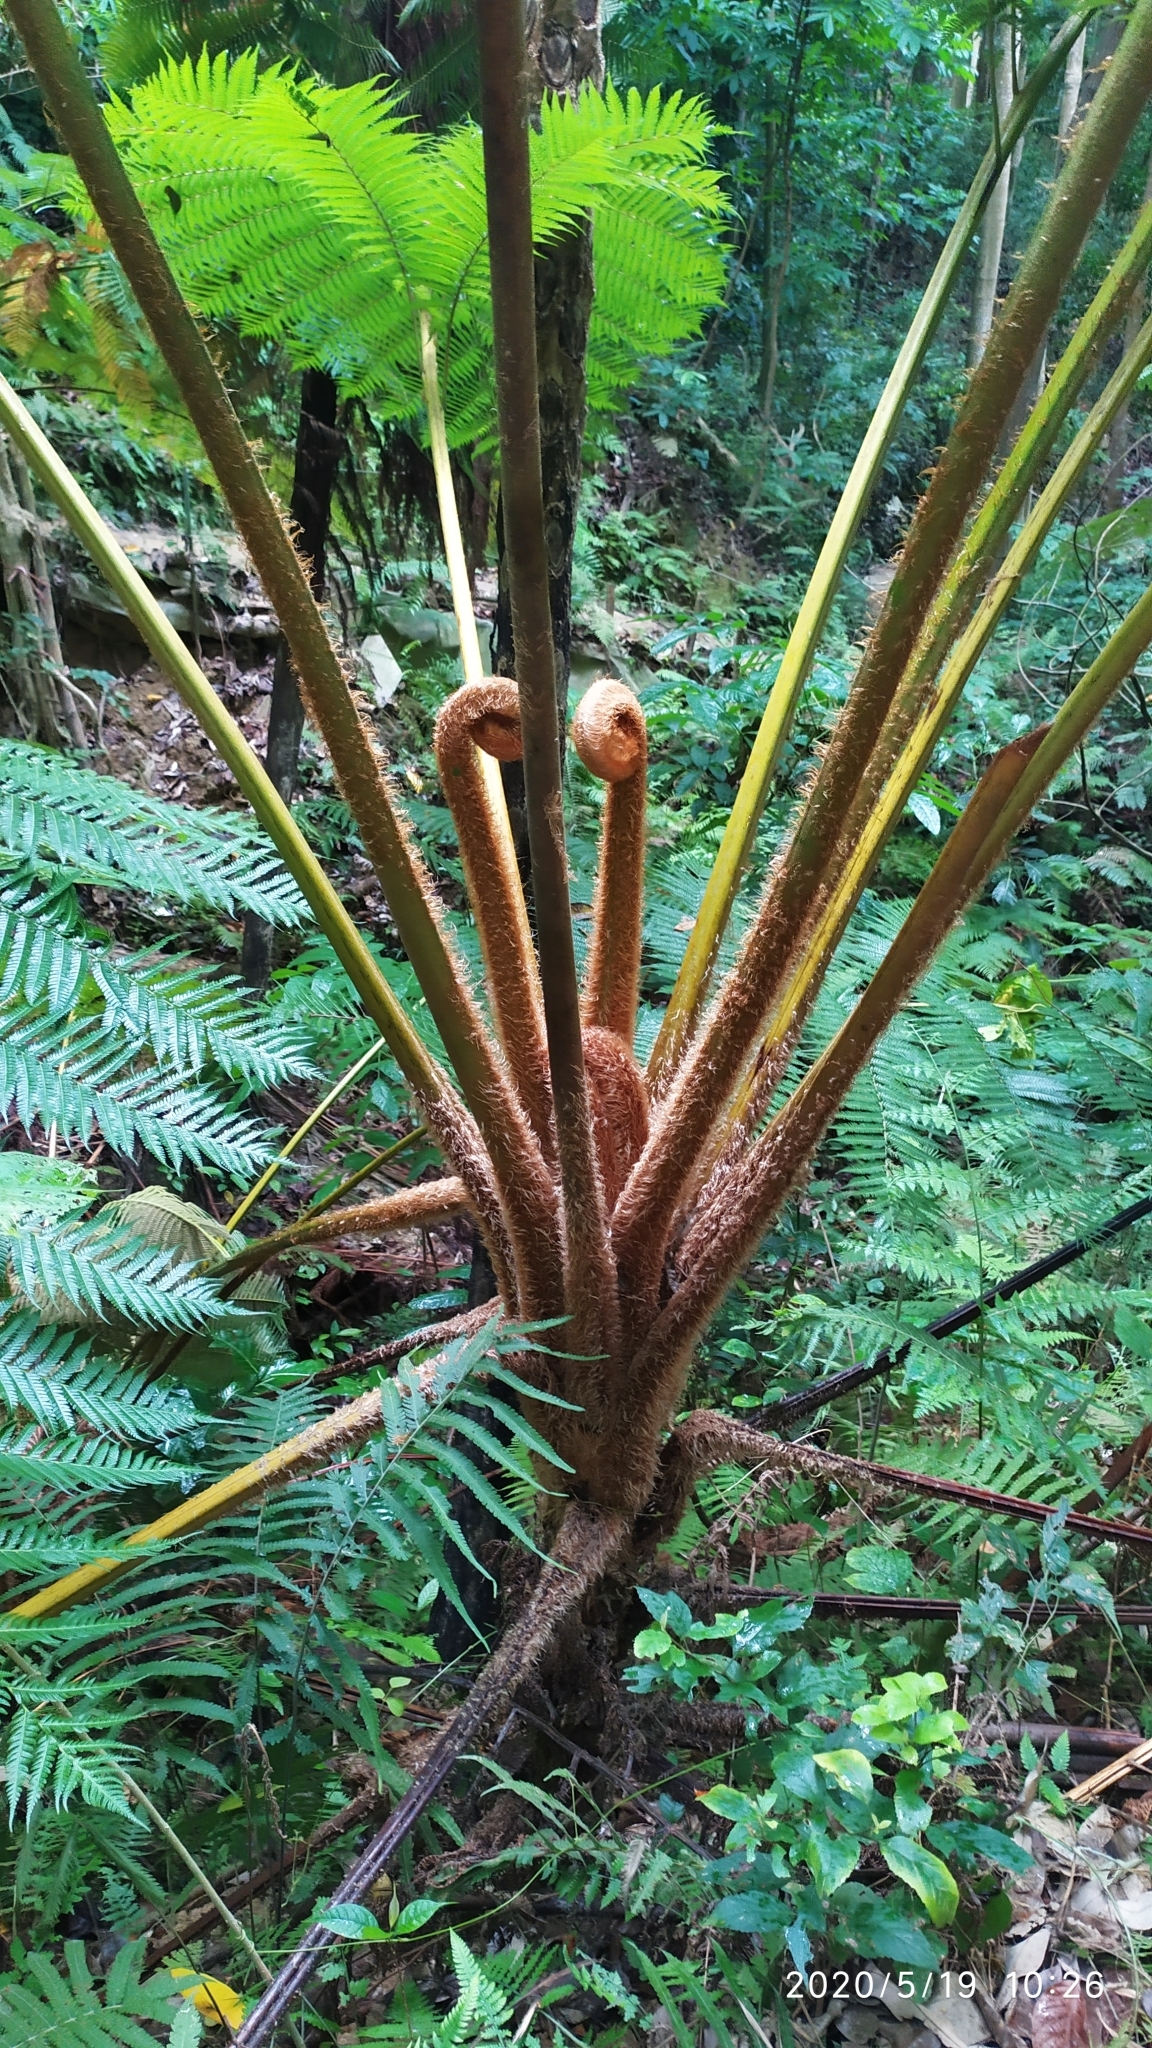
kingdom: Plantae
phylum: Tracheophyta
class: Polypodiopsida
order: Cyatheales
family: Cyatheaceae
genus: Alsophila
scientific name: Alsophila lepifera
